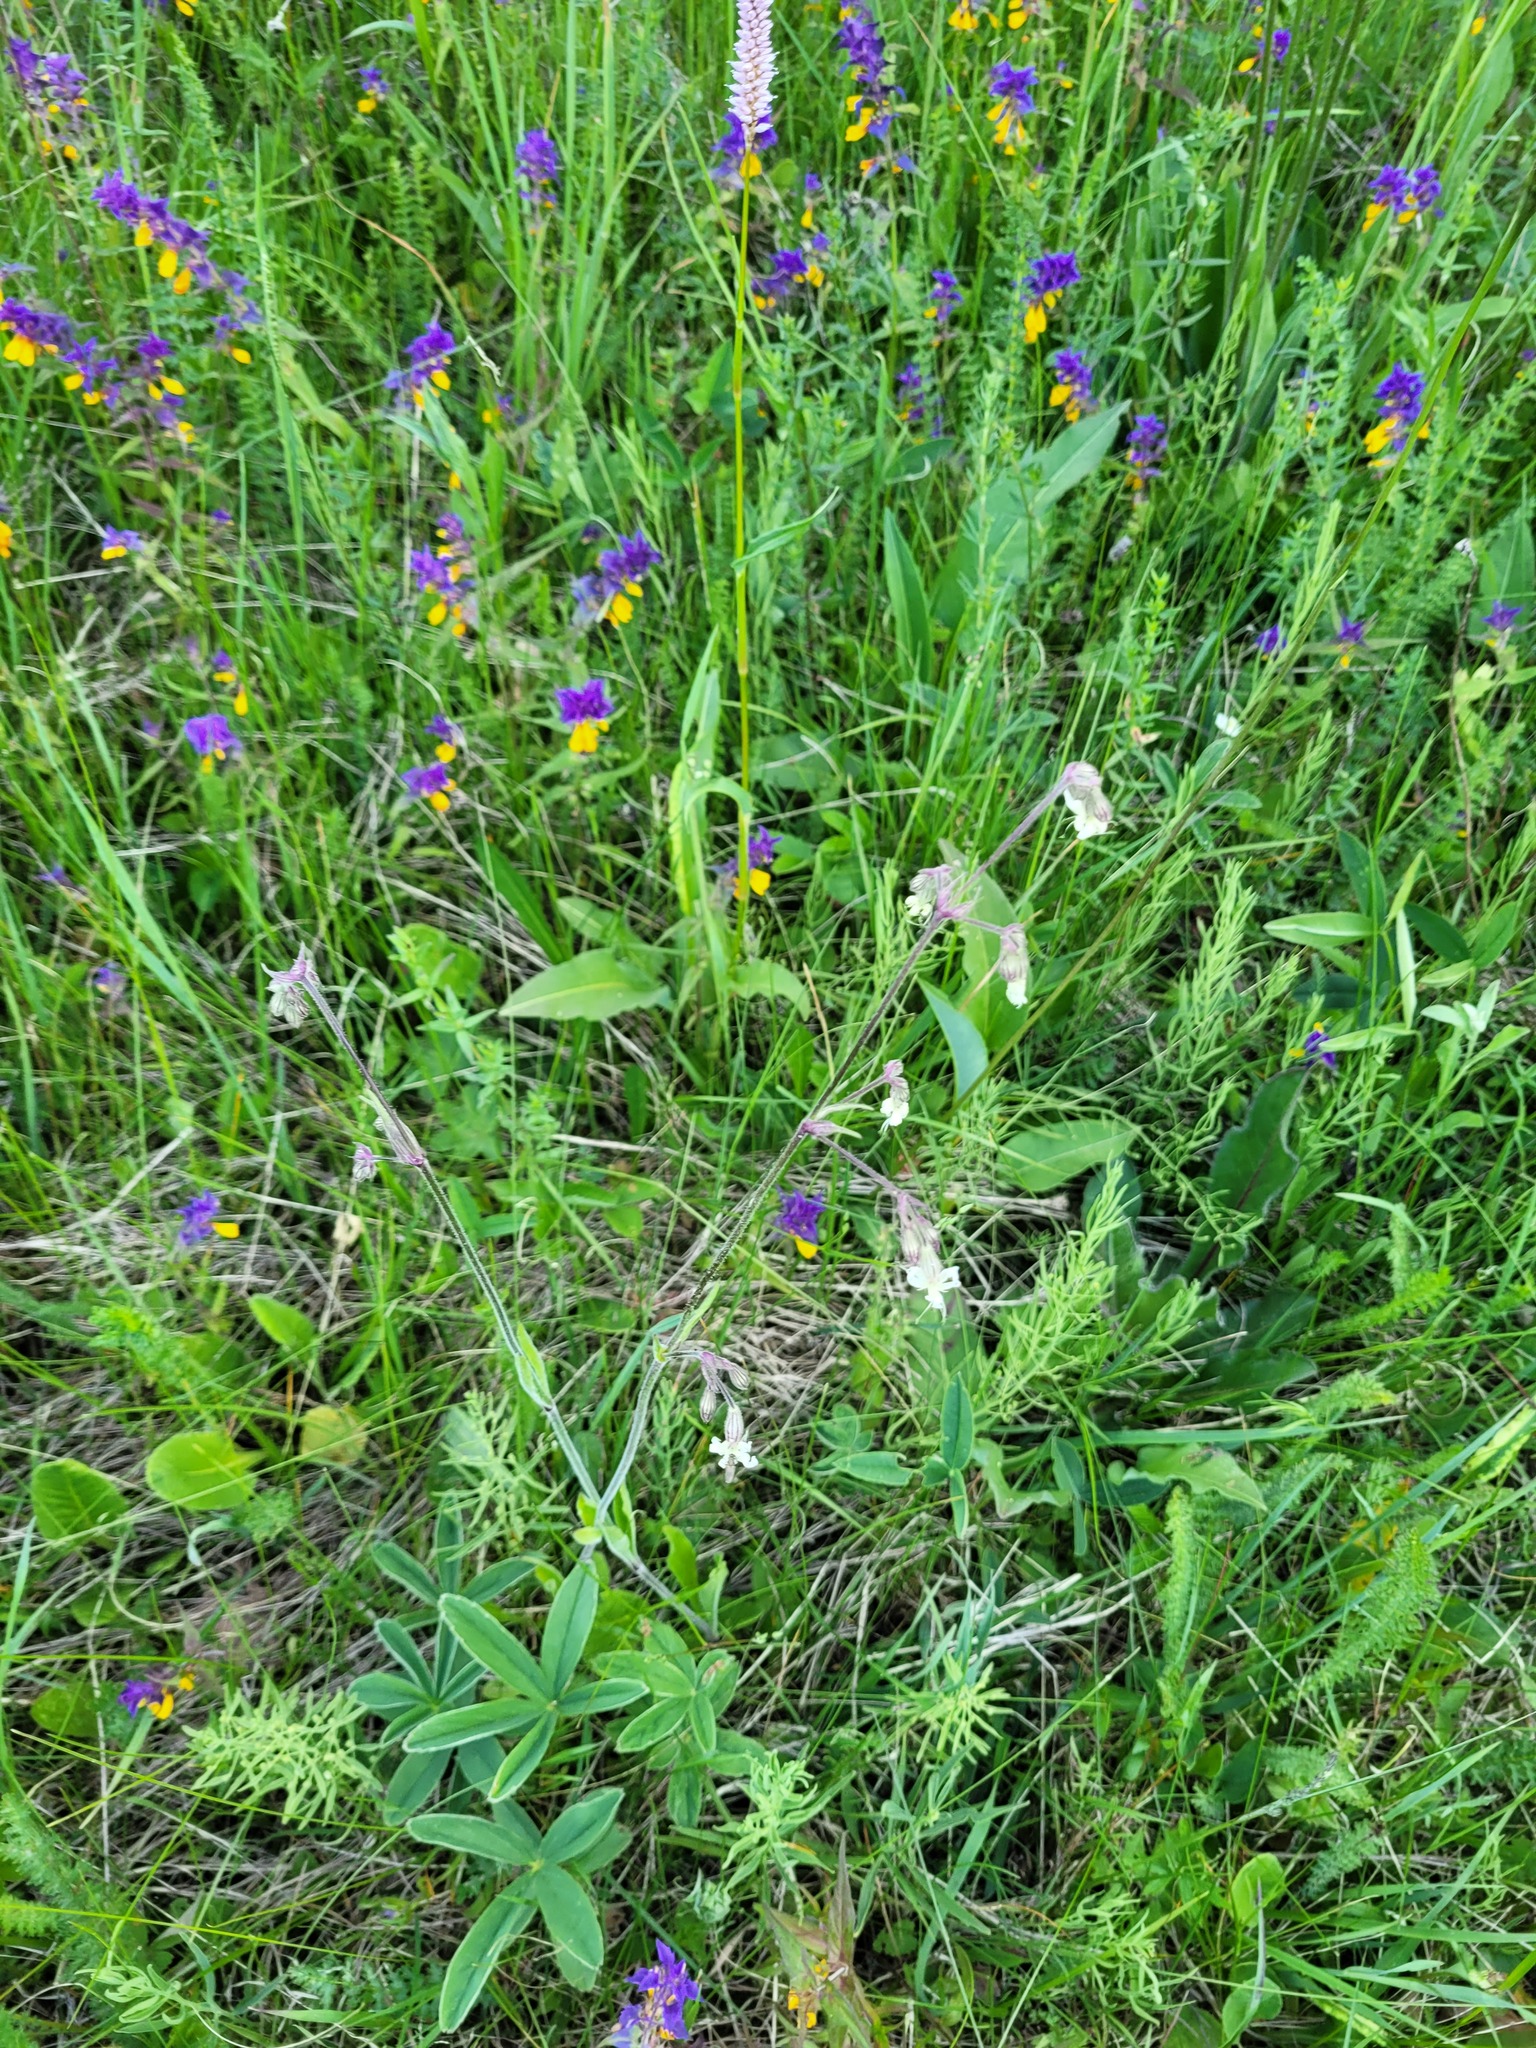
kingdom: Plantae
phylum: Tracheophyta
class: Magnoliopsida
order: Caryophyllales
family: Caryophyllaceae
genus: Silene
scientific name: Silene nutans
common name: Nottingham catchfly
